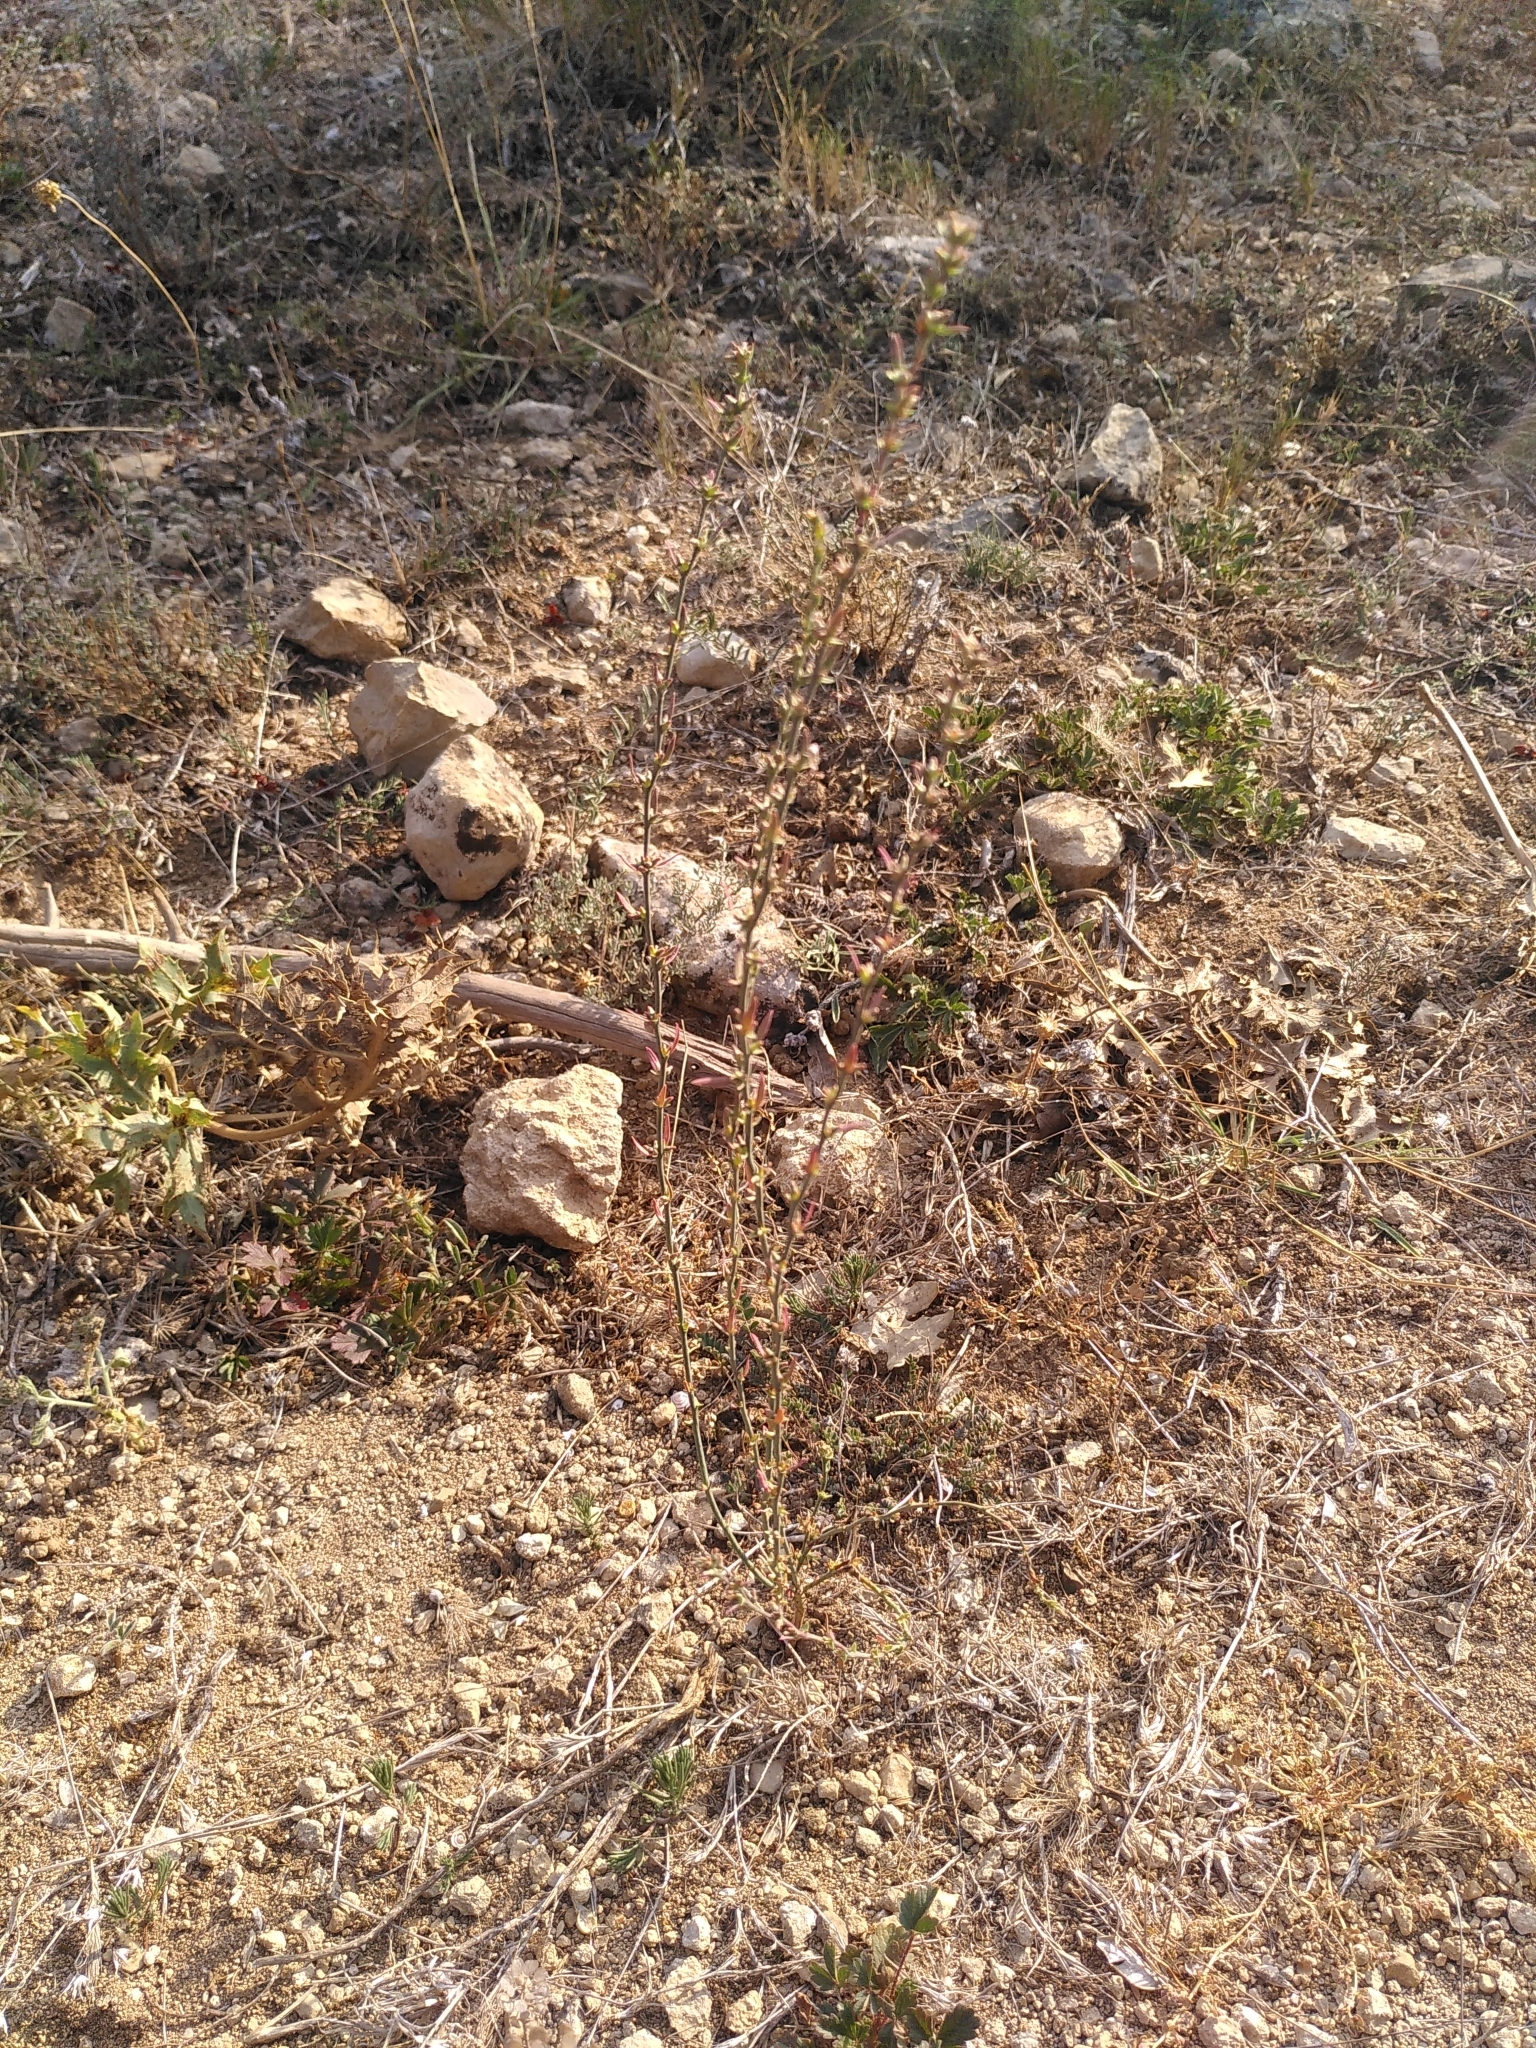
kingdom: Plantae
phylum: Tracheophyta
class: Magnoliopsida
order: Malvales
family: Thymelaeaceae
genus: Thymelaea
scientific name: Thymelaea passerina
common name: Annual thymelaea
